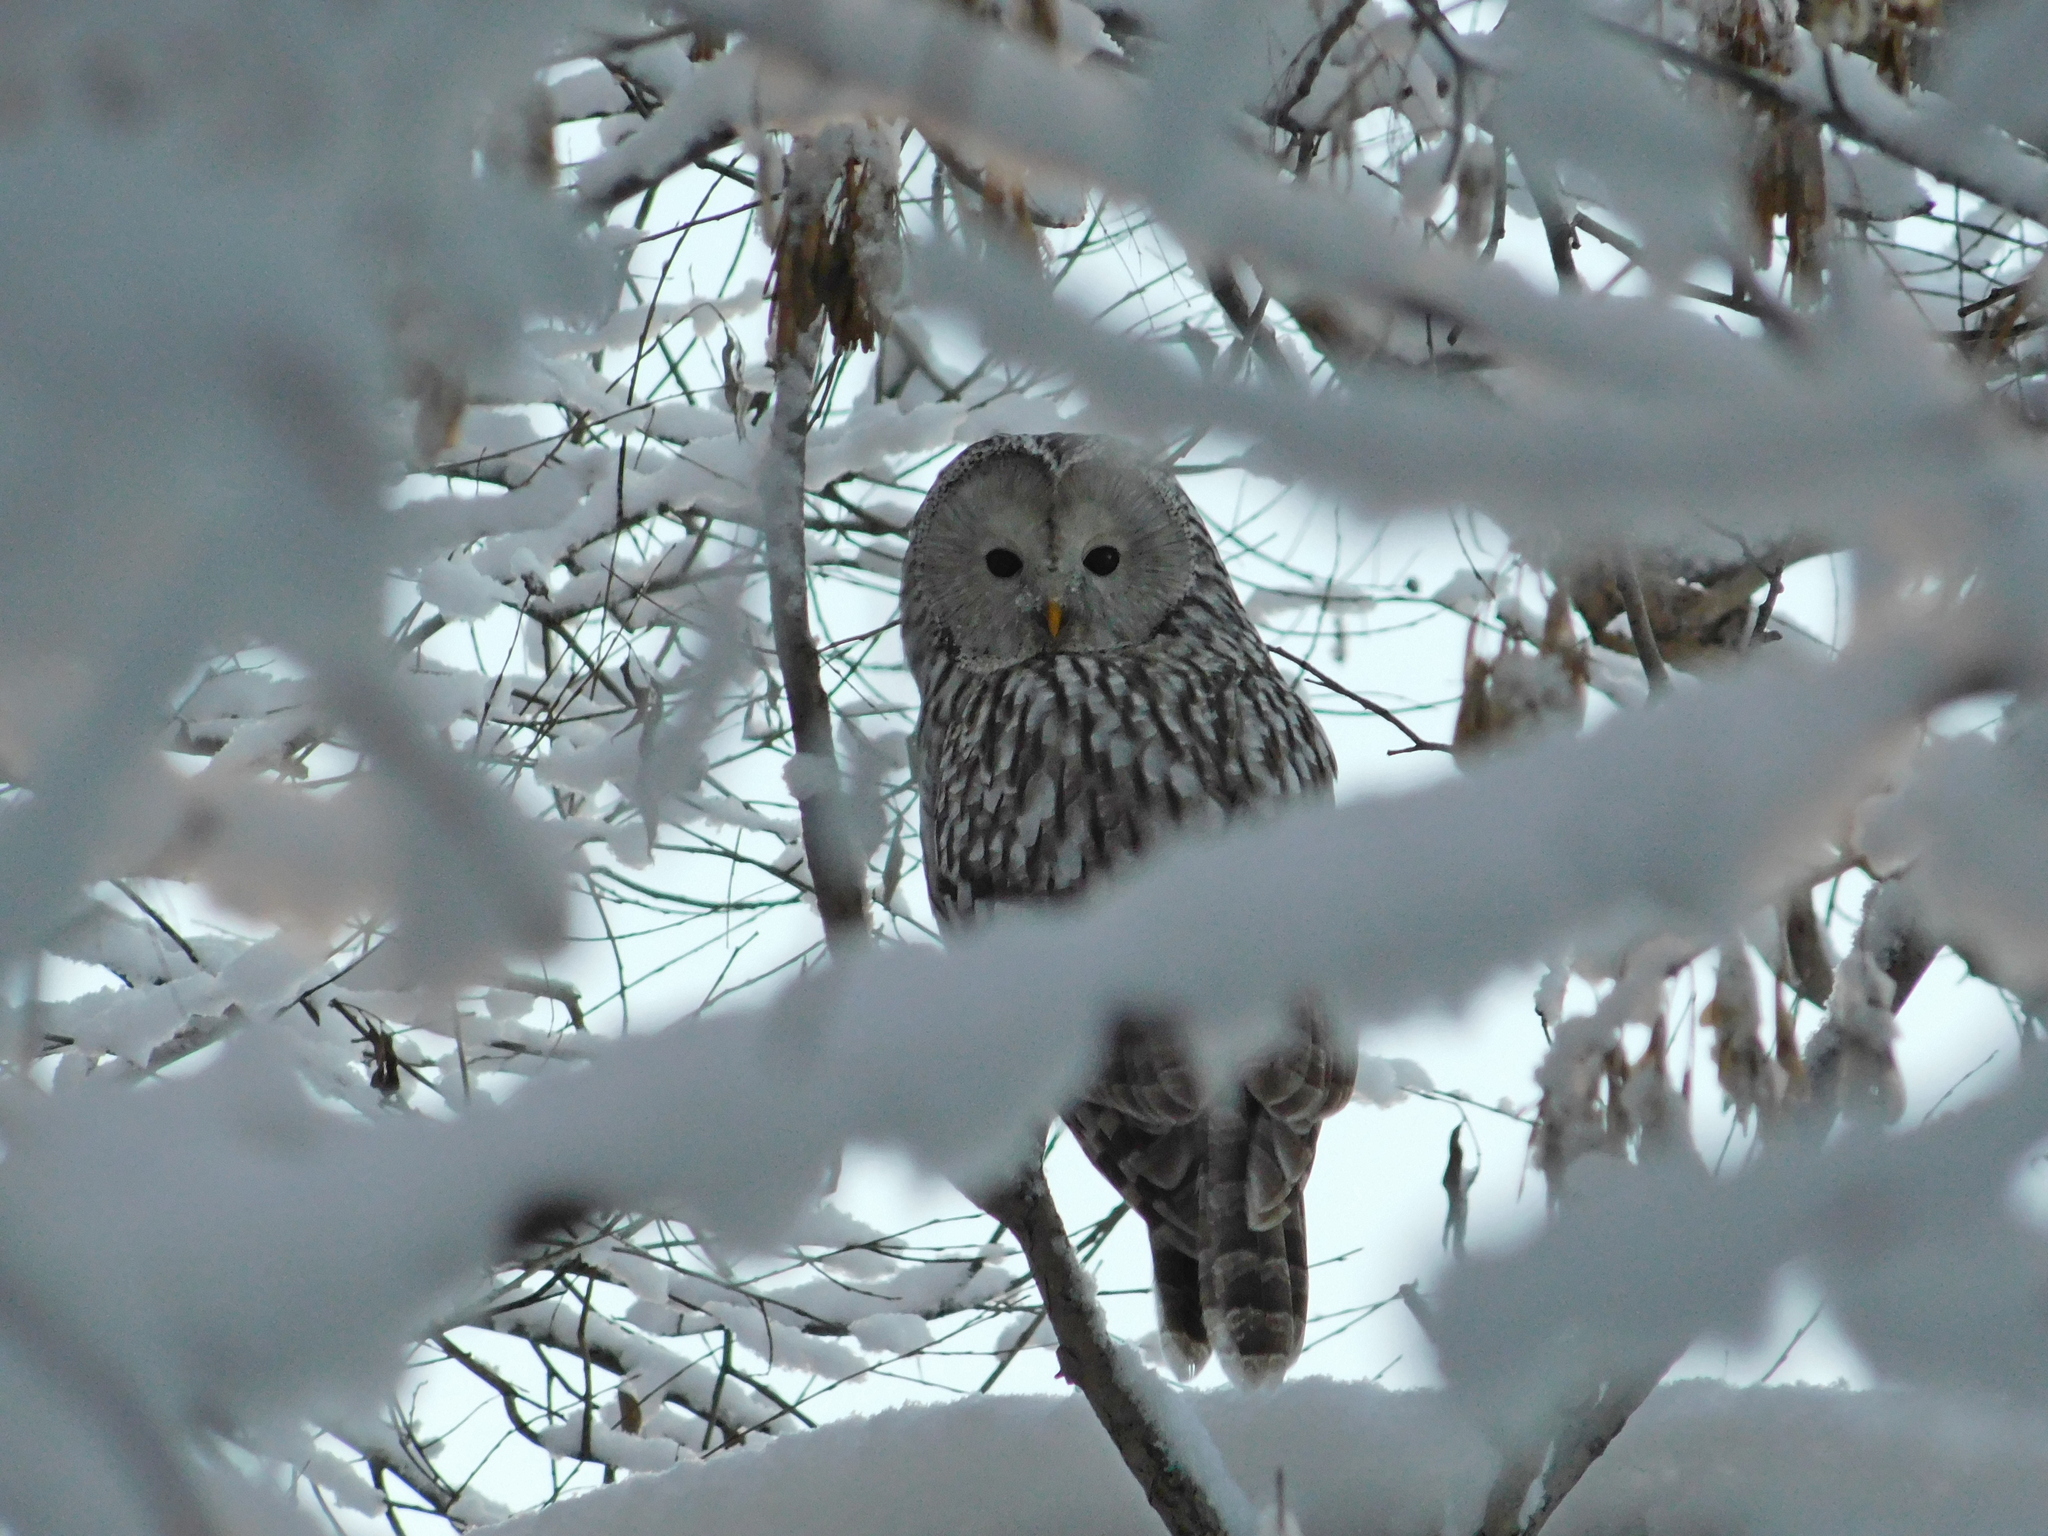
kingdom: Animalia
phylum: Chordata
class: Aves
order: Strigiformes
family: Strigidae
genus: Strix
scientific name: Strix uralensis
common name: Ural owl
